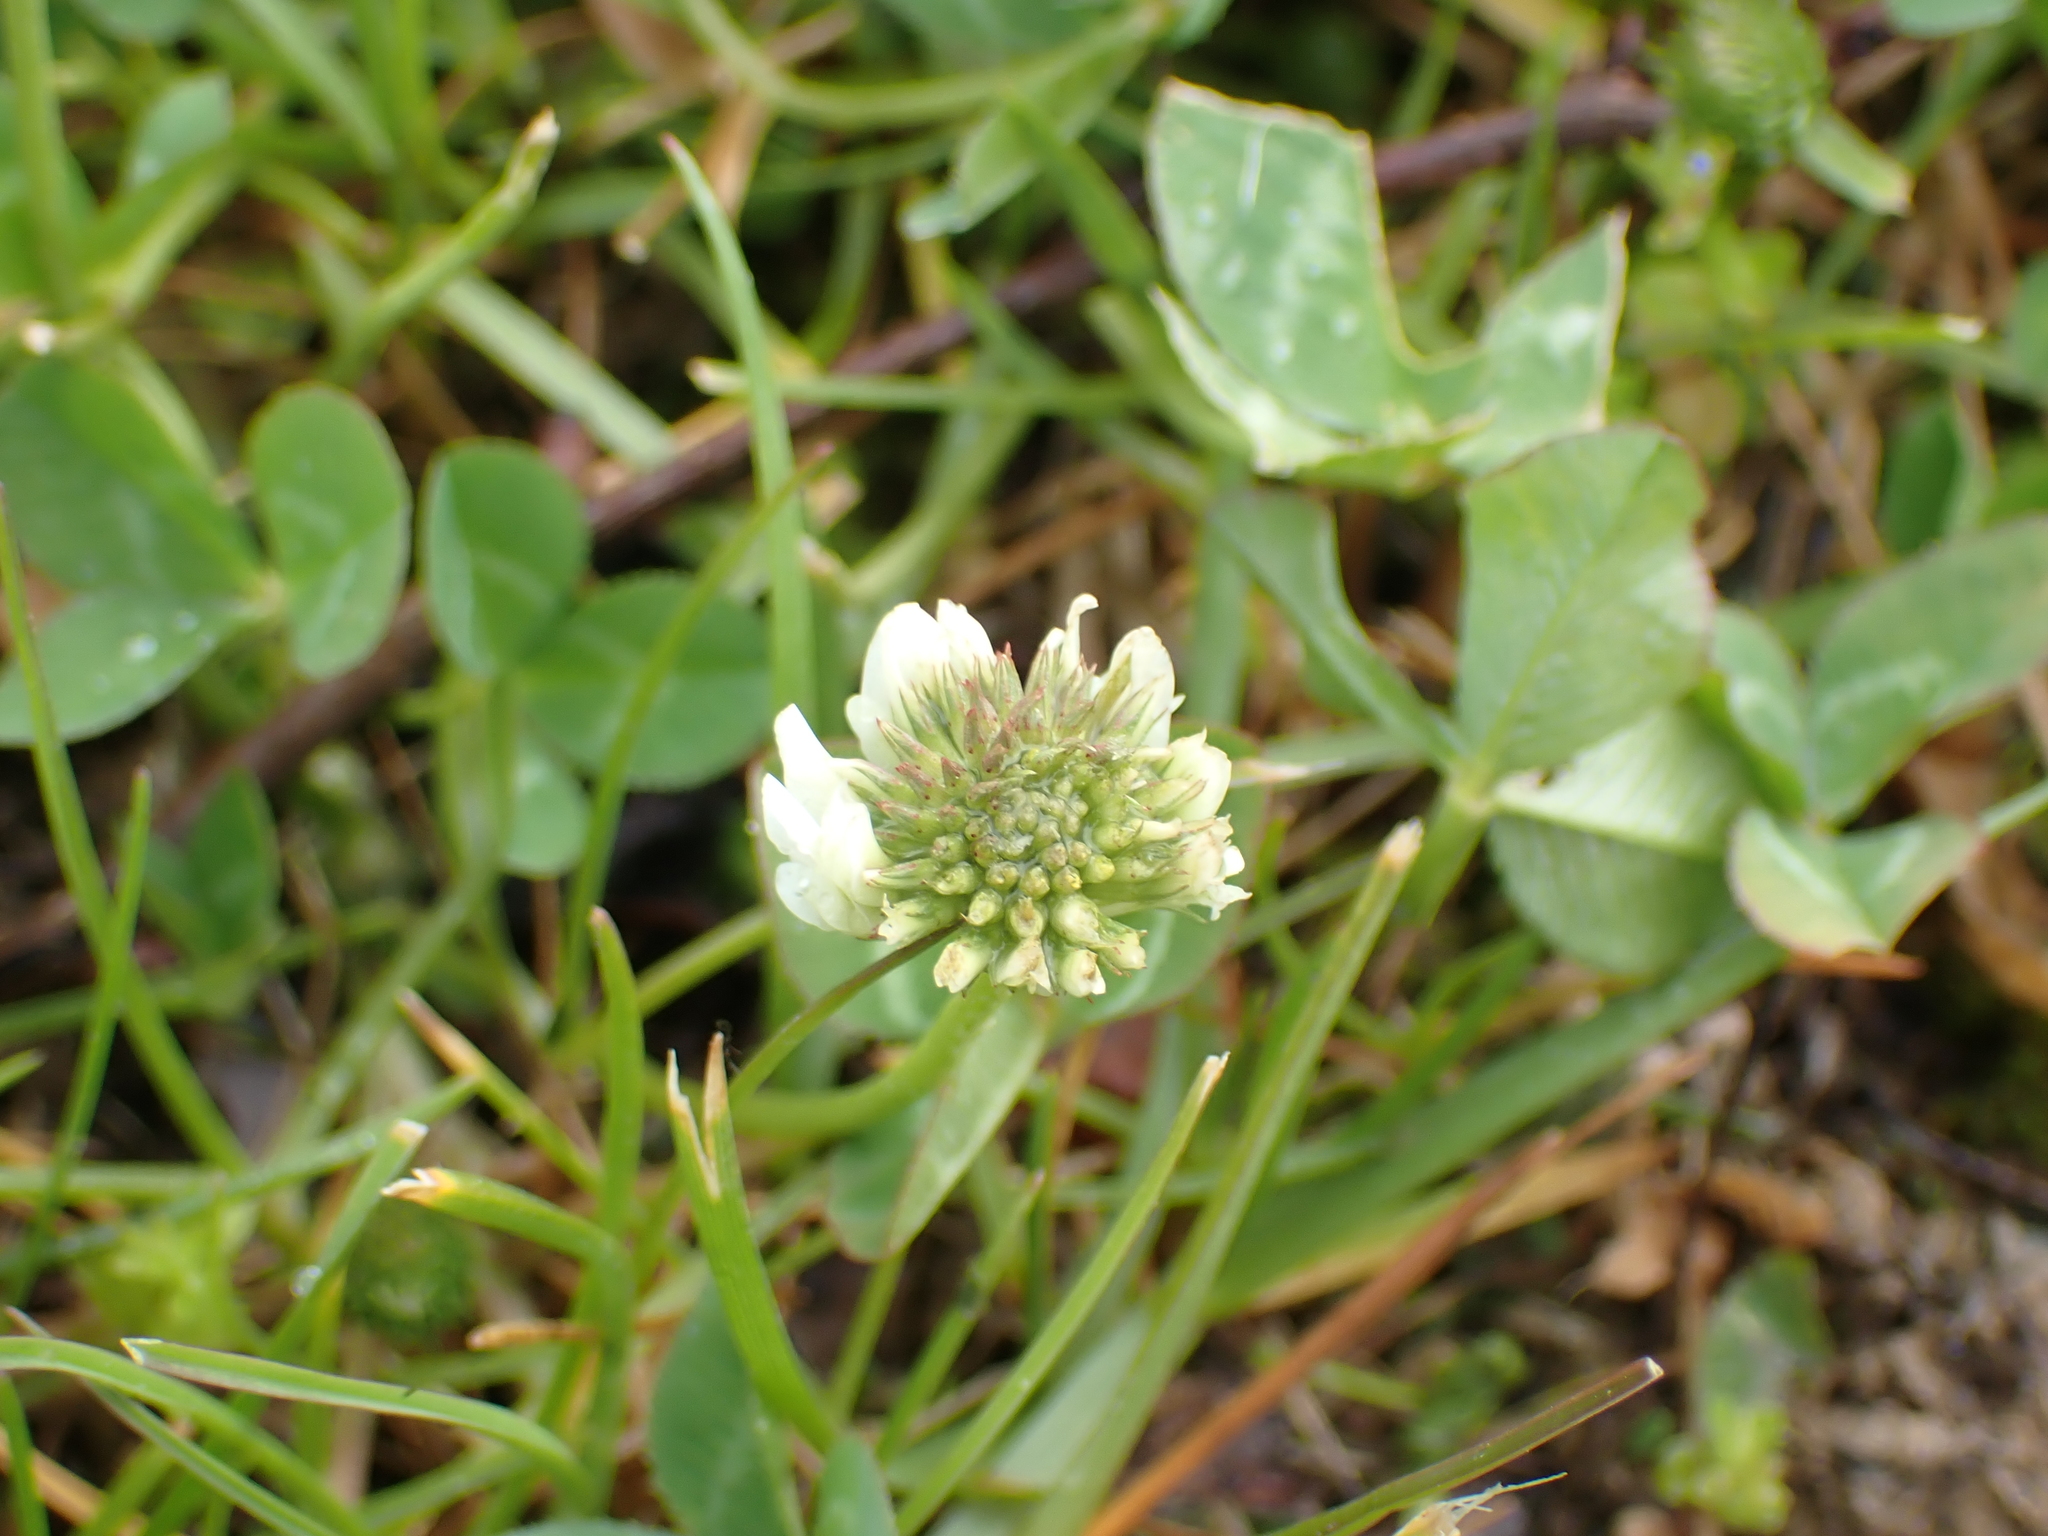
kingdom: Plantae
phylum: Tracheophyta
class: Magnoliopsida
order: Fabales
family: Fabaceae
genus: Trifolium
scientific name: Trifolium repens
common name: White clover
